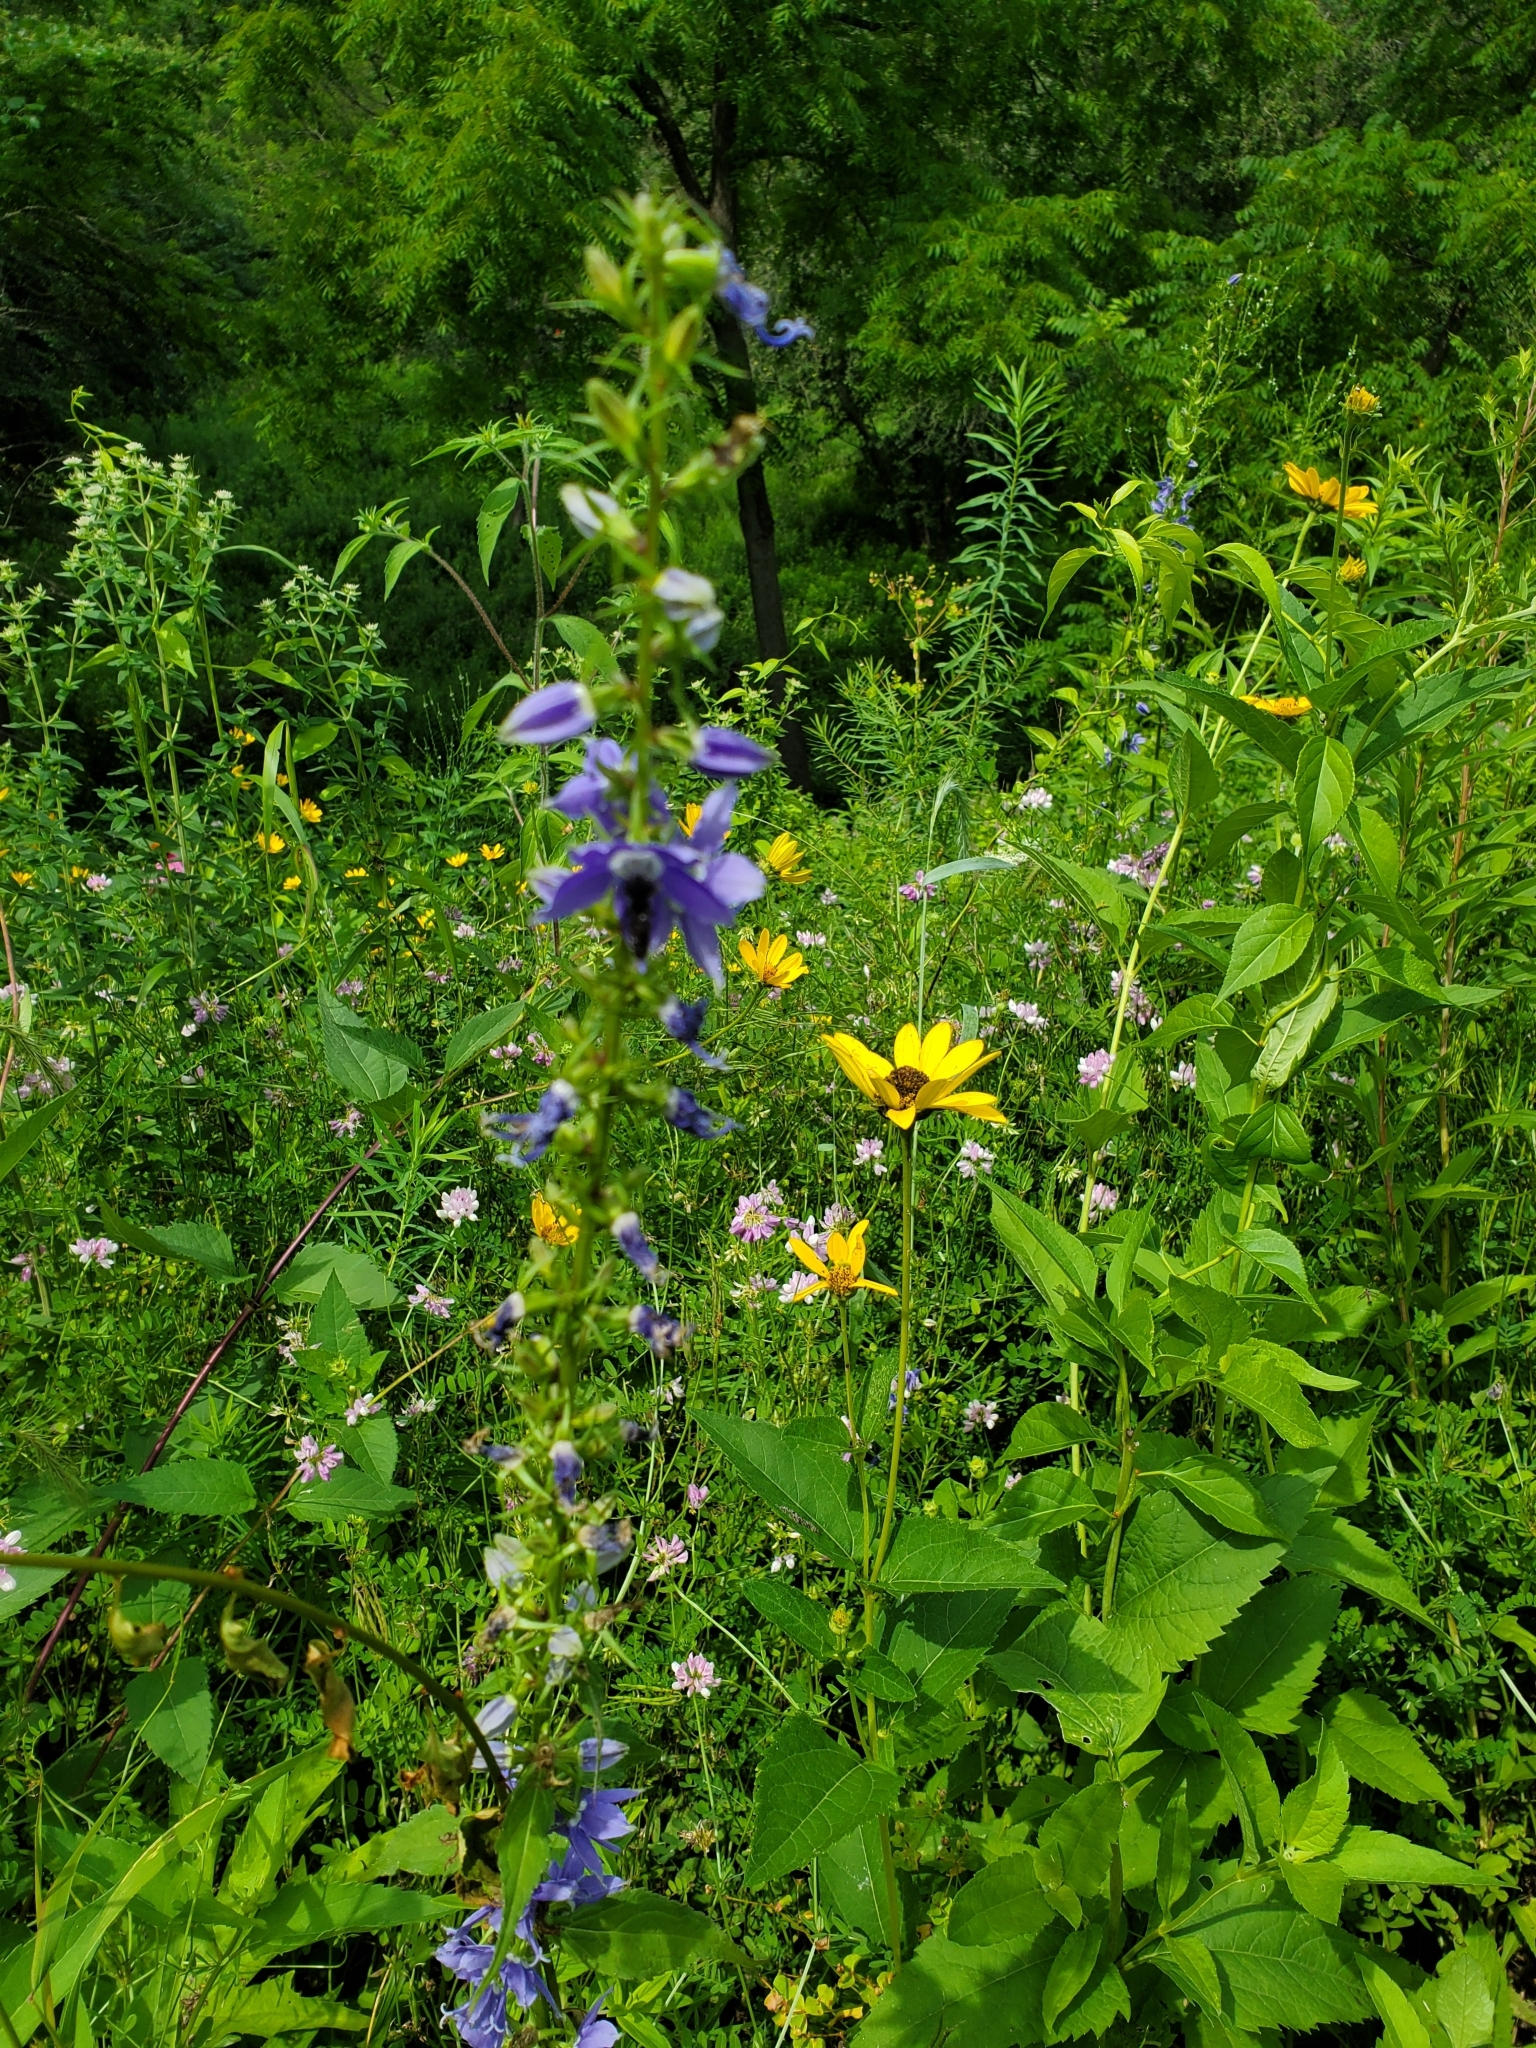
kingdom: Plantae
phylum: Tracheophyta
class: Magnoliopsida
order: Asterales
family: Campanulaceae
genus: Campanulastrum
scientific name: Campanulastrum americanum
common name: American bellflower
